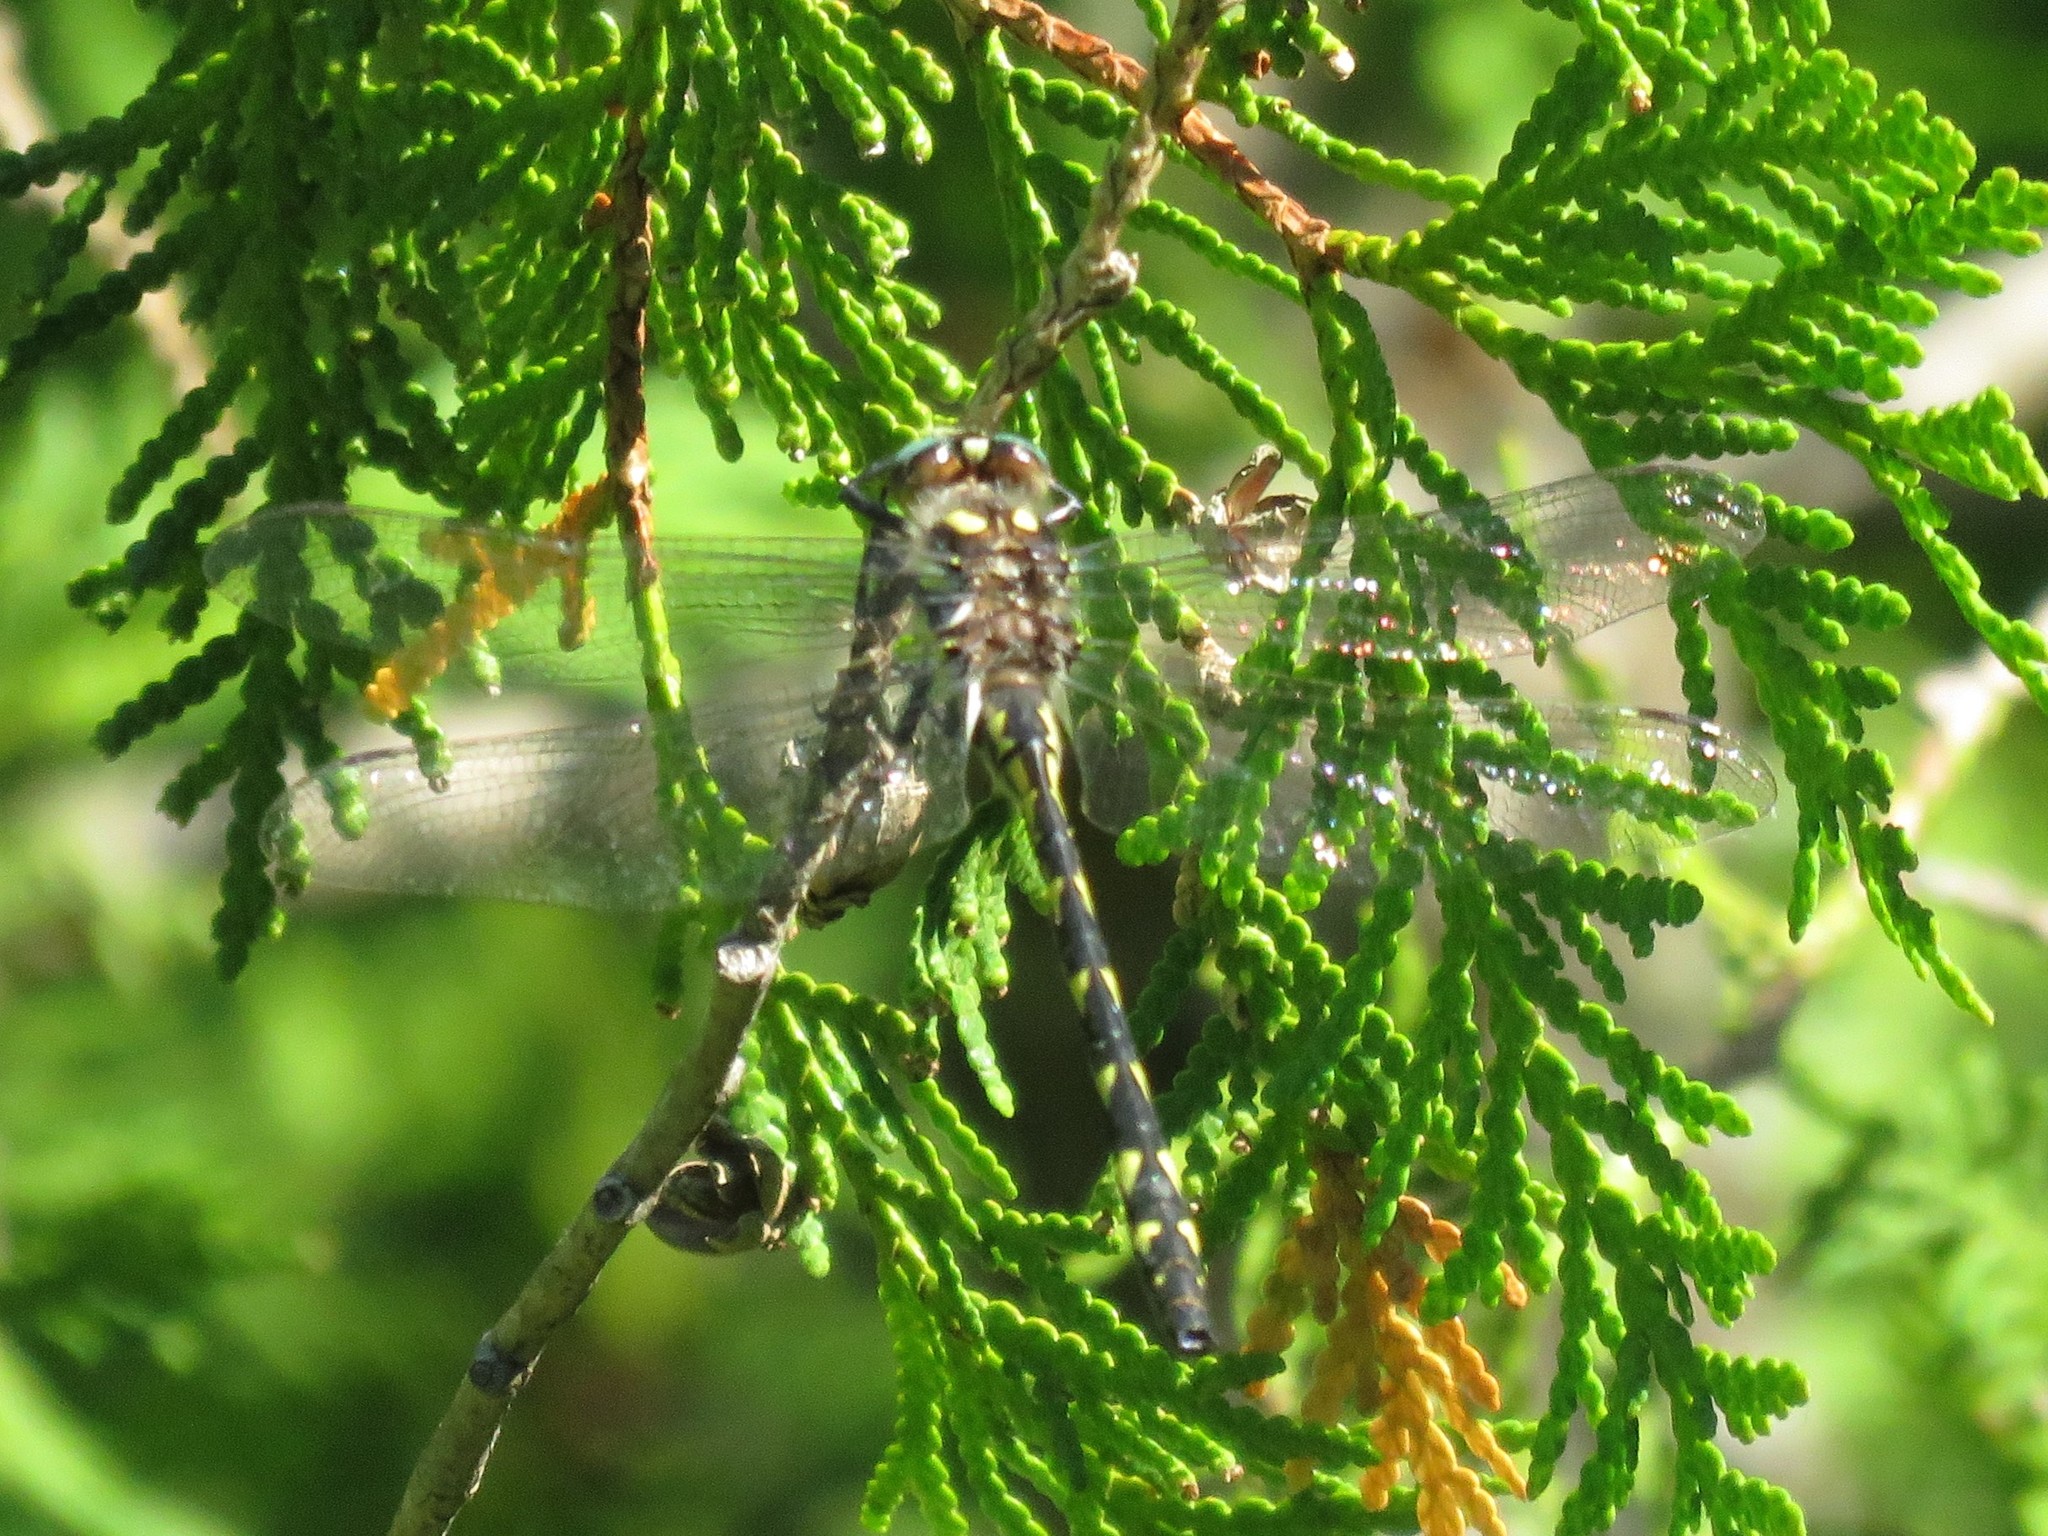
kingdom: Animalia
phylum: Arthropoda
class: Insecta
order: Odonata
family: Cordulegastridae
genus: Cordulegaster
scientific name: Cordulegaster diastatops
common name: Delta-spotted spiketail
